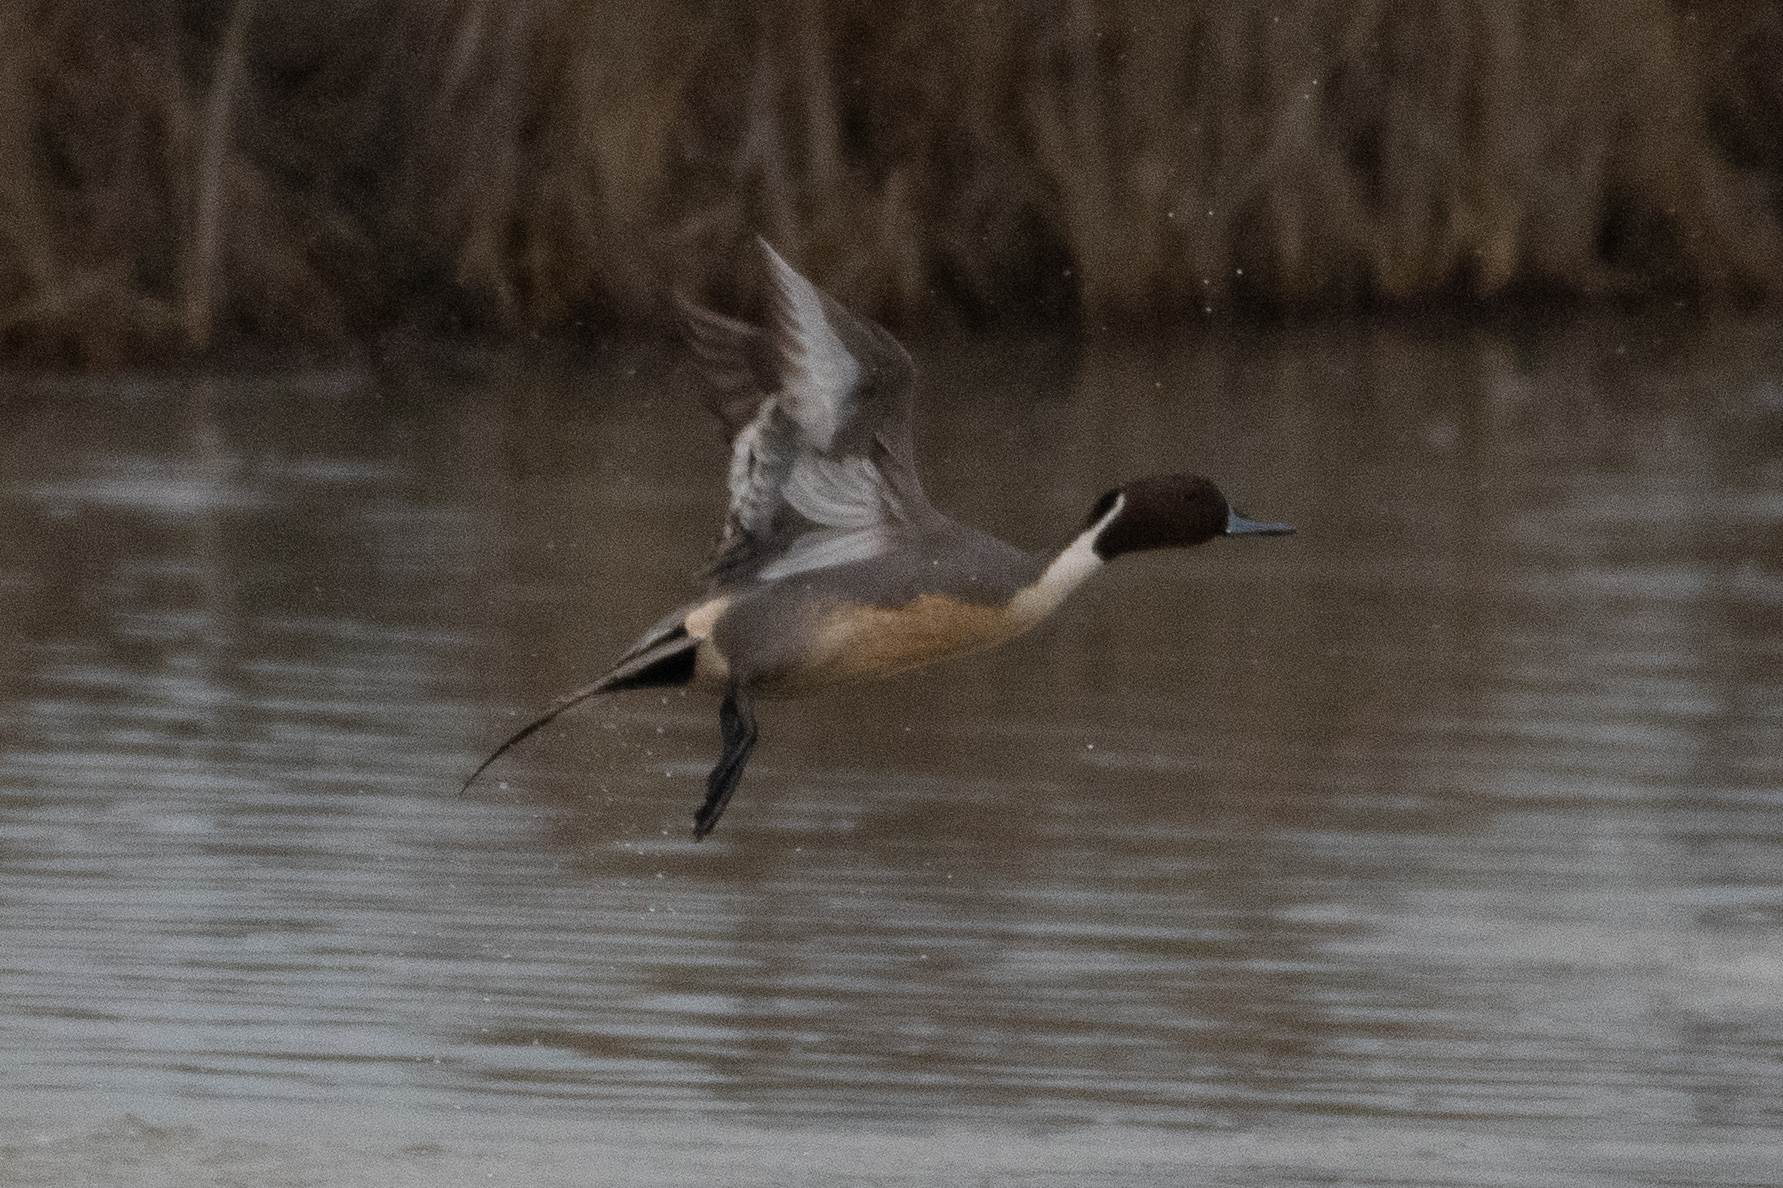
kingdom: Animalia
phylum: Chordata
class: Aves
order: Anseriformes
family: Anatidae
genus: Anas
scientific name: Anas acuta
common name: Northern pintail
